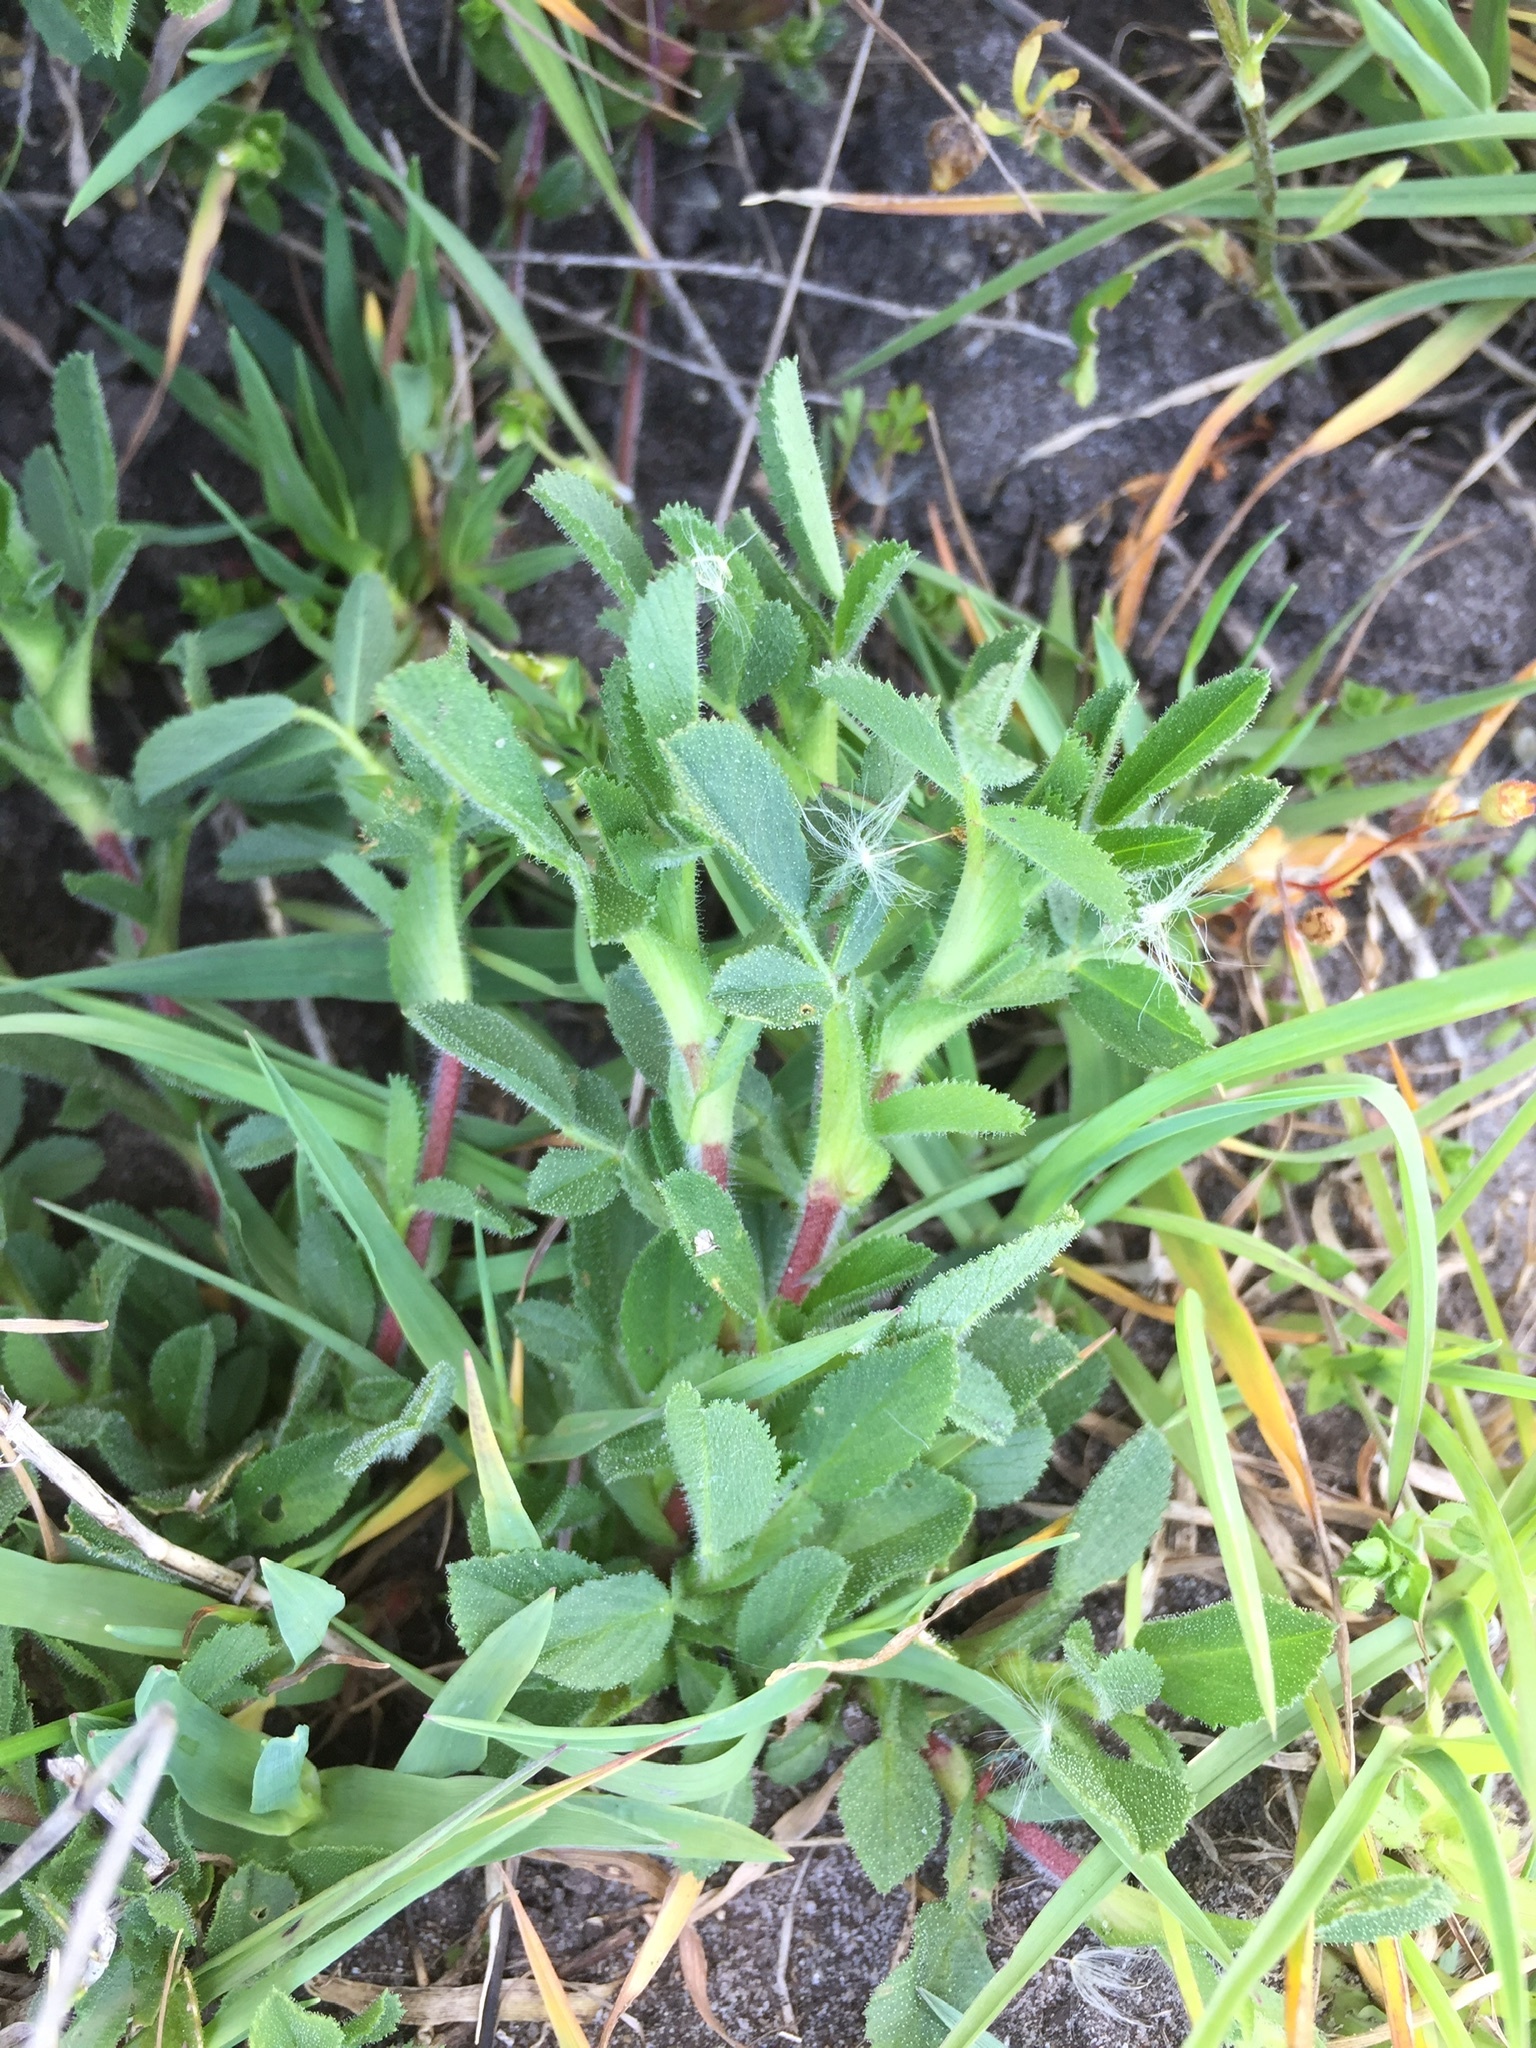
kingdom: Plantae
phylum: Tracheophyta
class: Magnoliopsida
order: Fabales
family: Fabaceae
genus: Ononis
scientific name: Ononis spinosa
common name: Spiny restharrow
